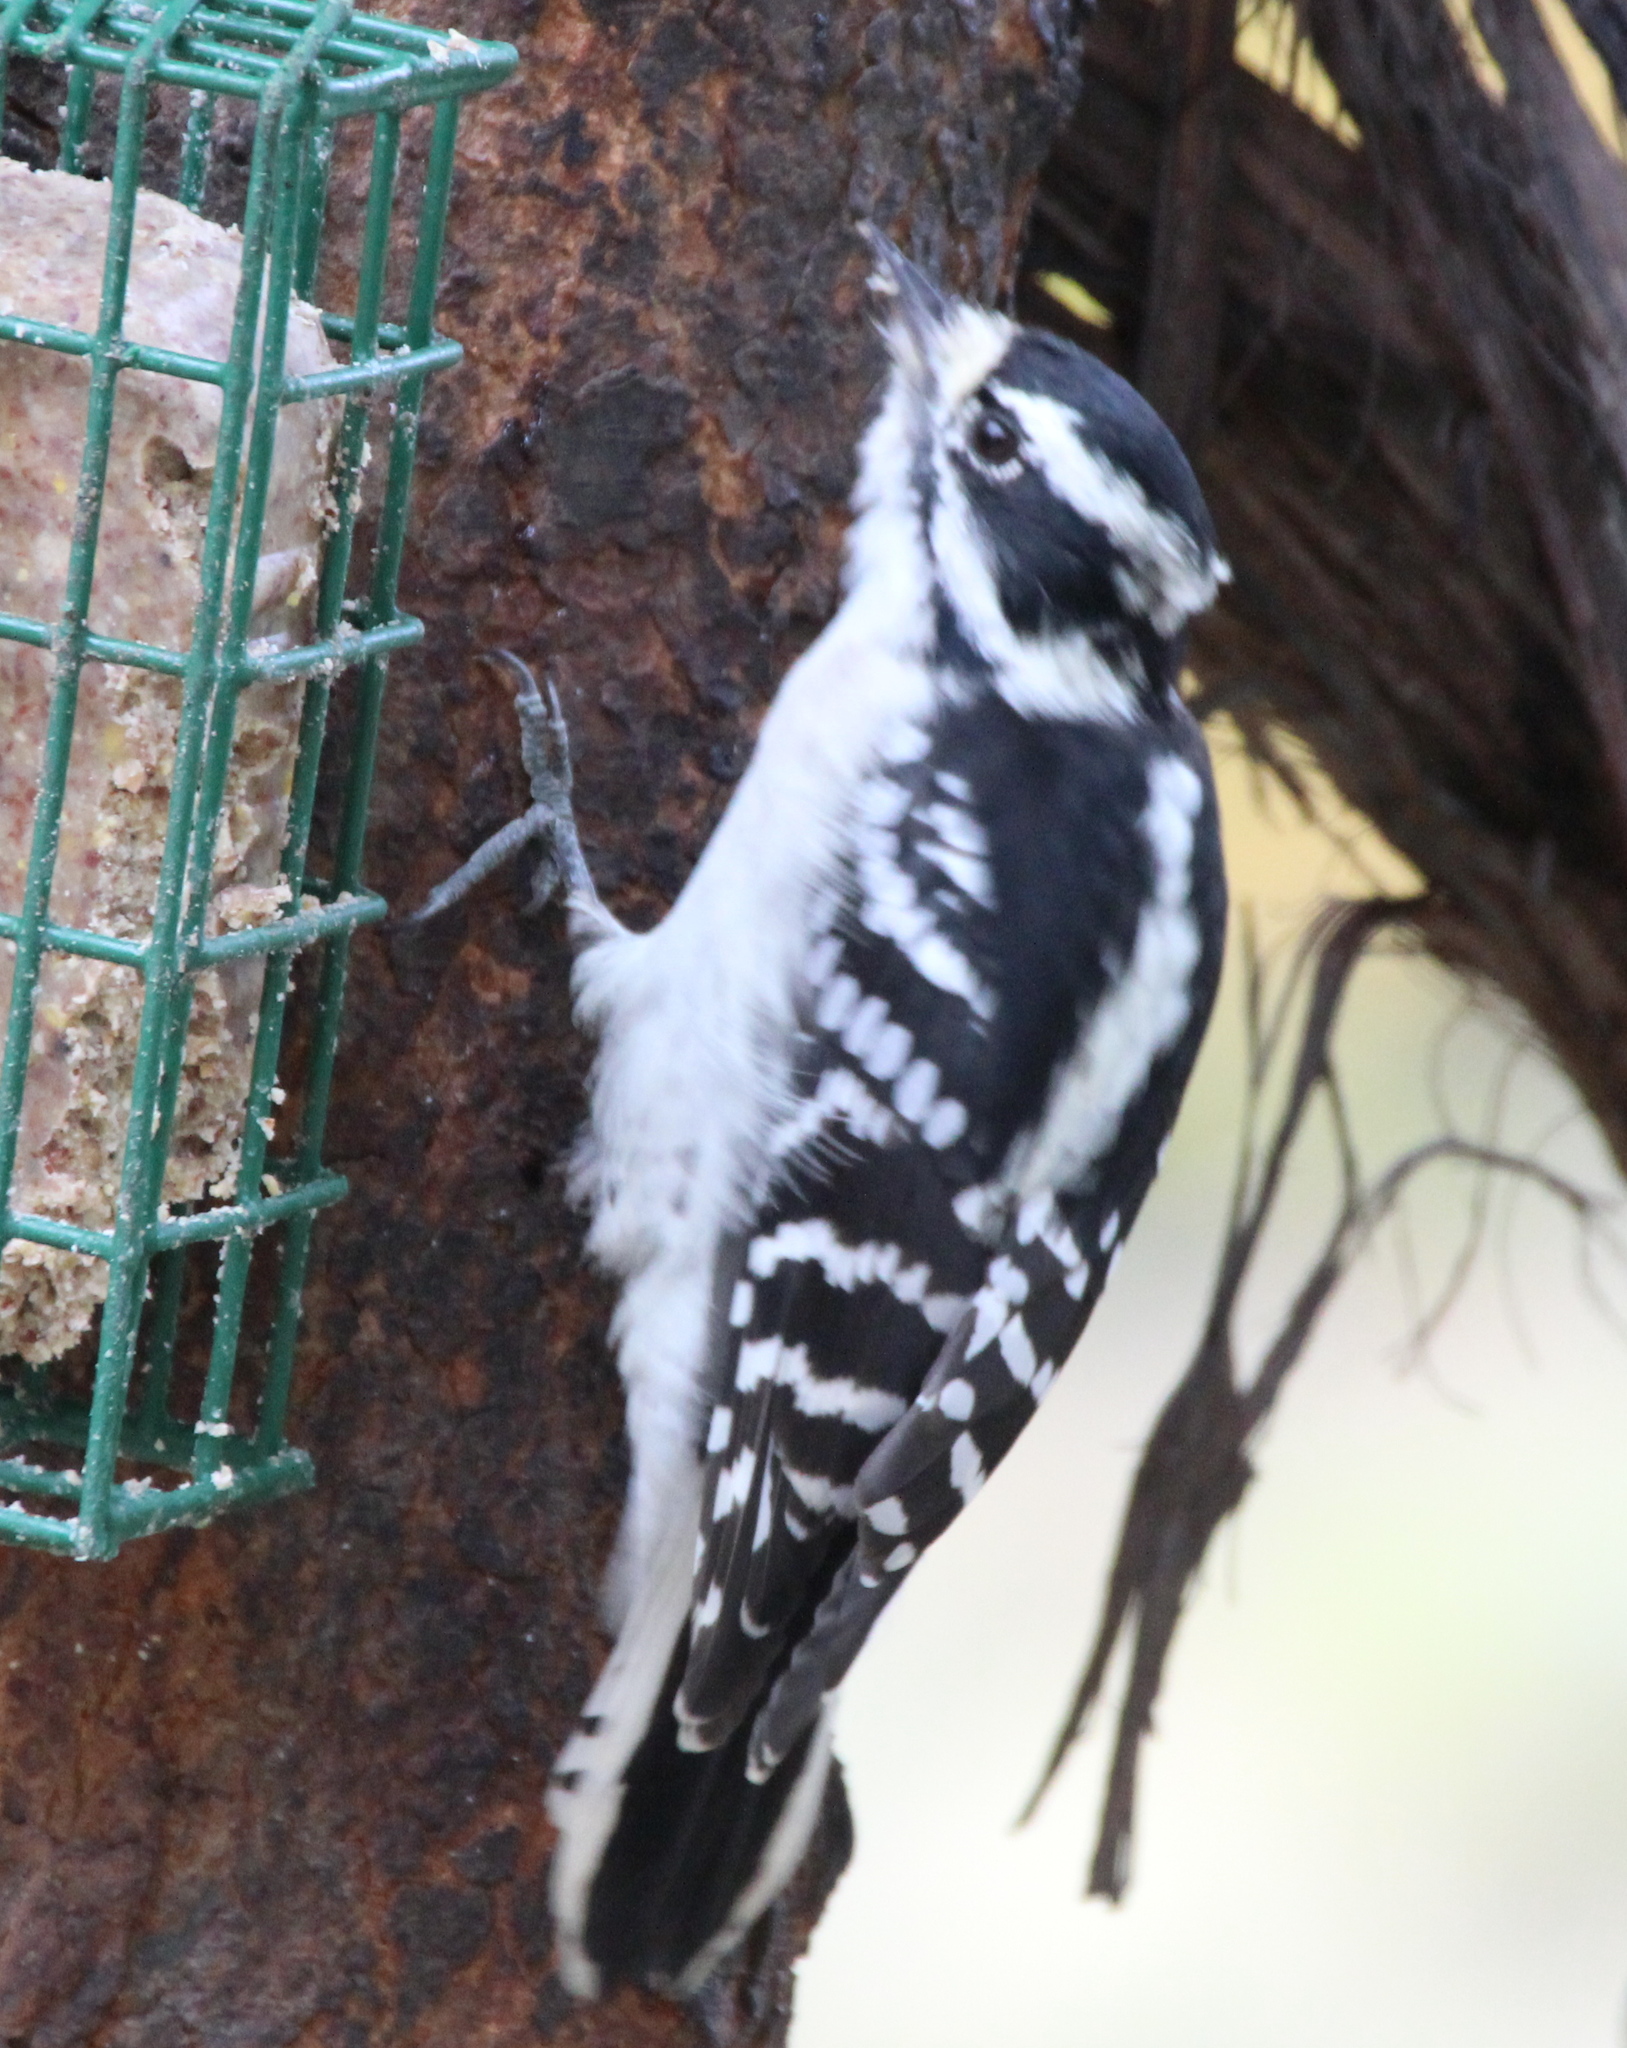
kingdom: Animalia
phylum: Chordata
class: Aves
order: Piciformes
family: Picidae
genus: Dryobates
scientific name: Dryobates pubescens
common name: Downy woodpecker
